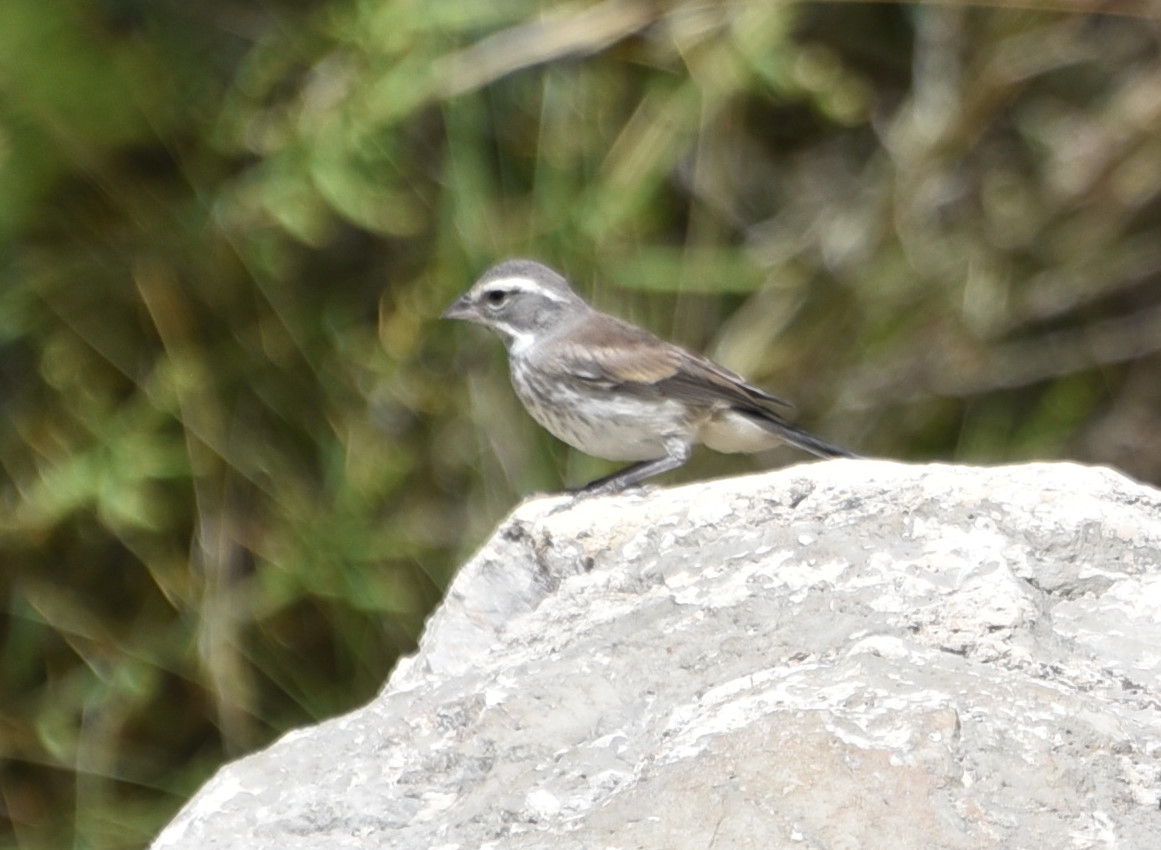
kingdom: Animalia
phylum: Chordata
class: Aves
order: Passeriformes
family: Passerellidae
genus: Amphispiza
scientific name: Amphispiza bilineata
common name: Black-throated sparrow
